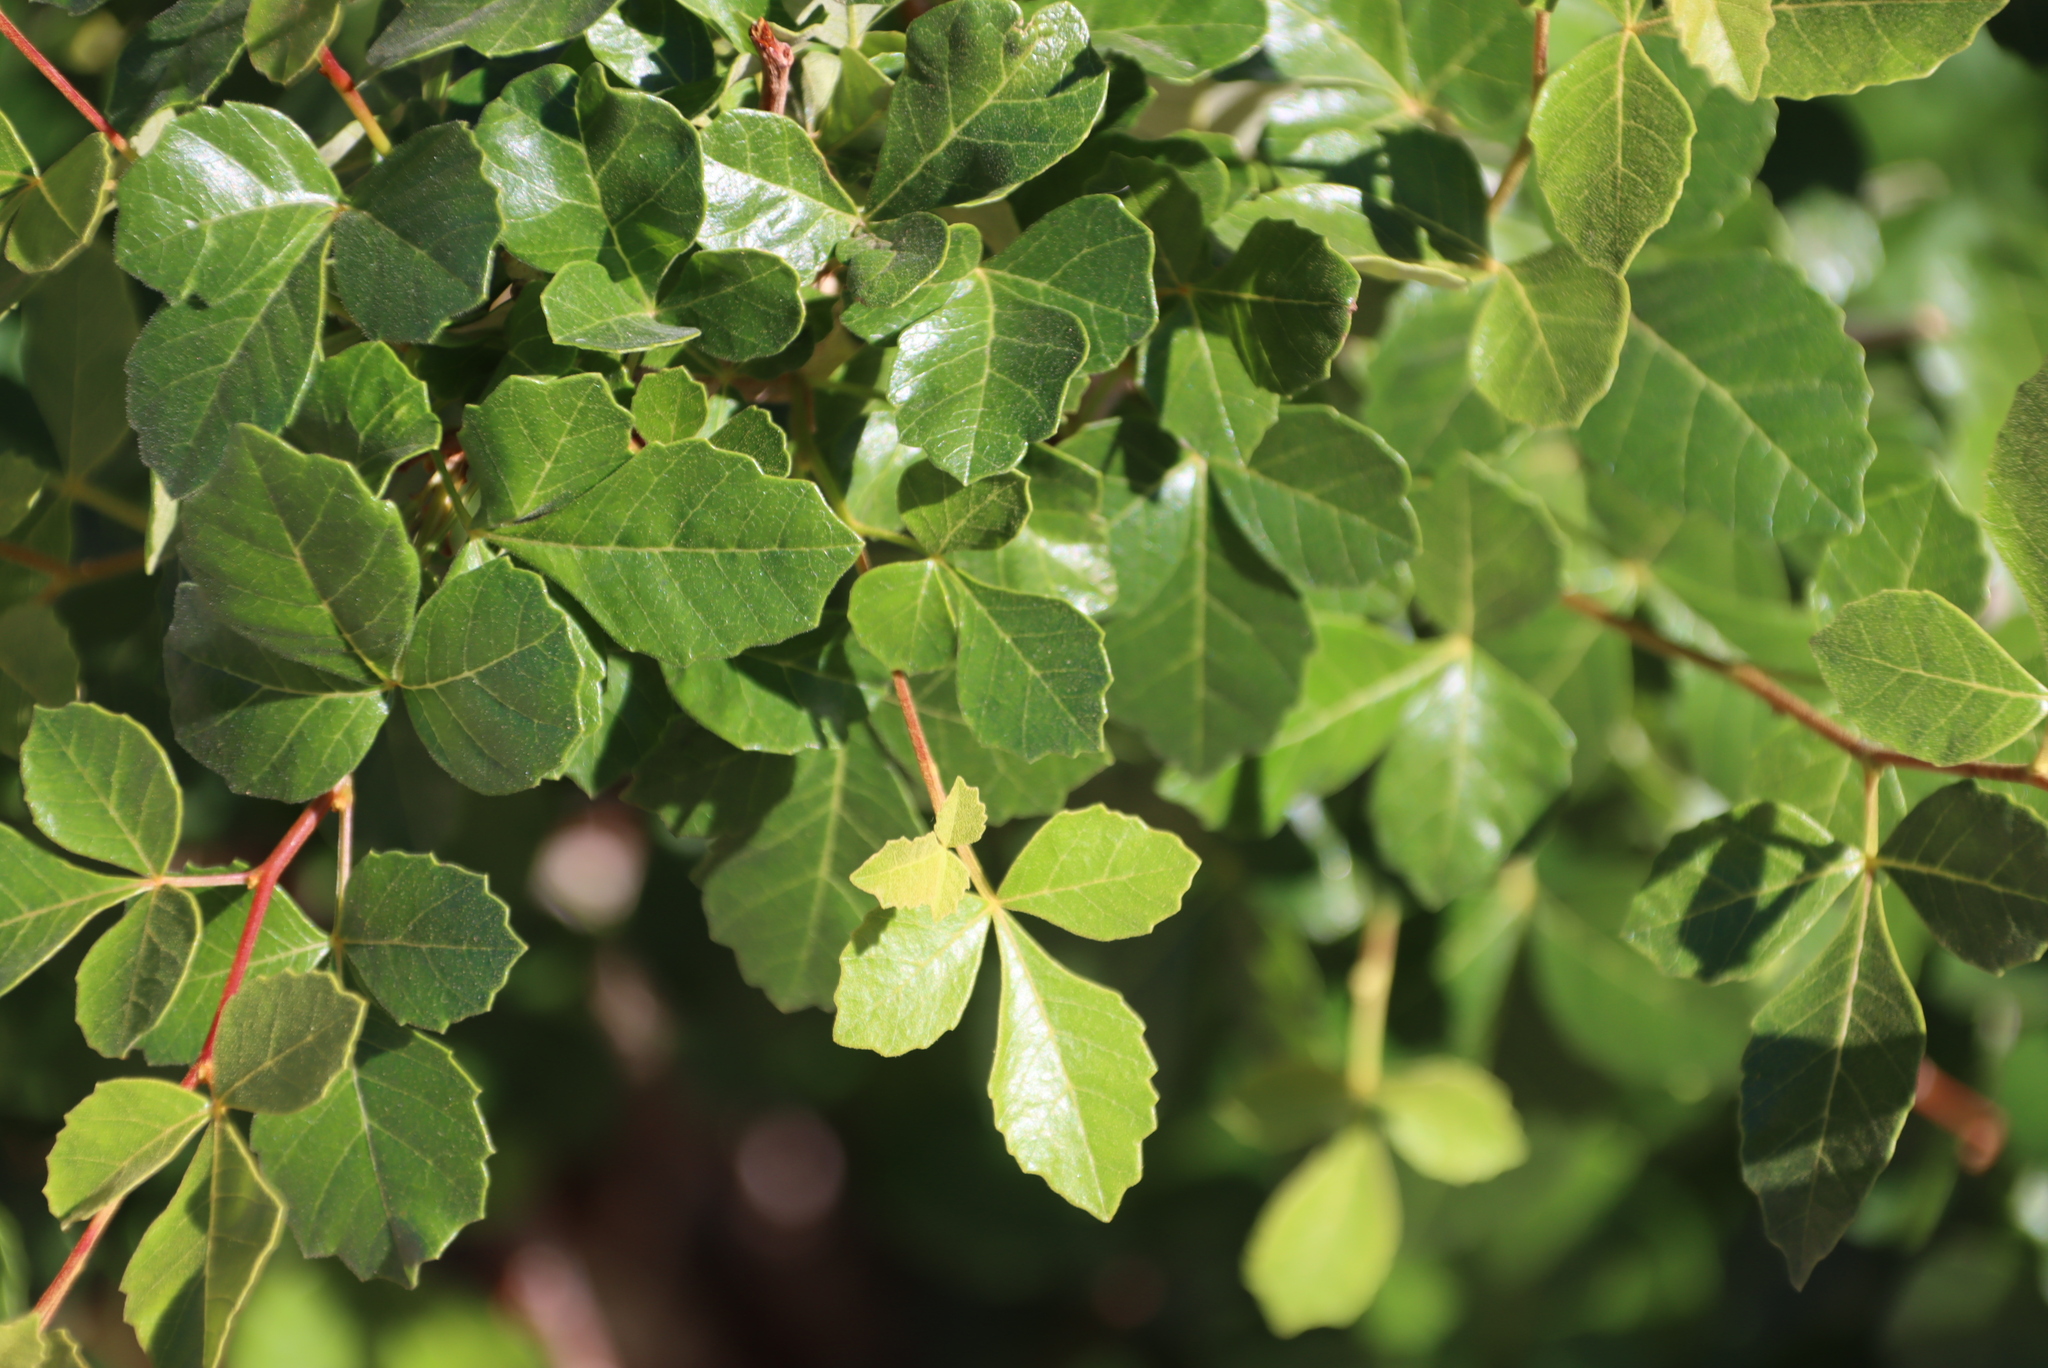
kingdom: Plantae
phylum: Tracheophyta
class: Magnoliopsida
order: Sapindales
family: Anacardiaceae
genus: Searsia
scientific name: Searsia populifolia
